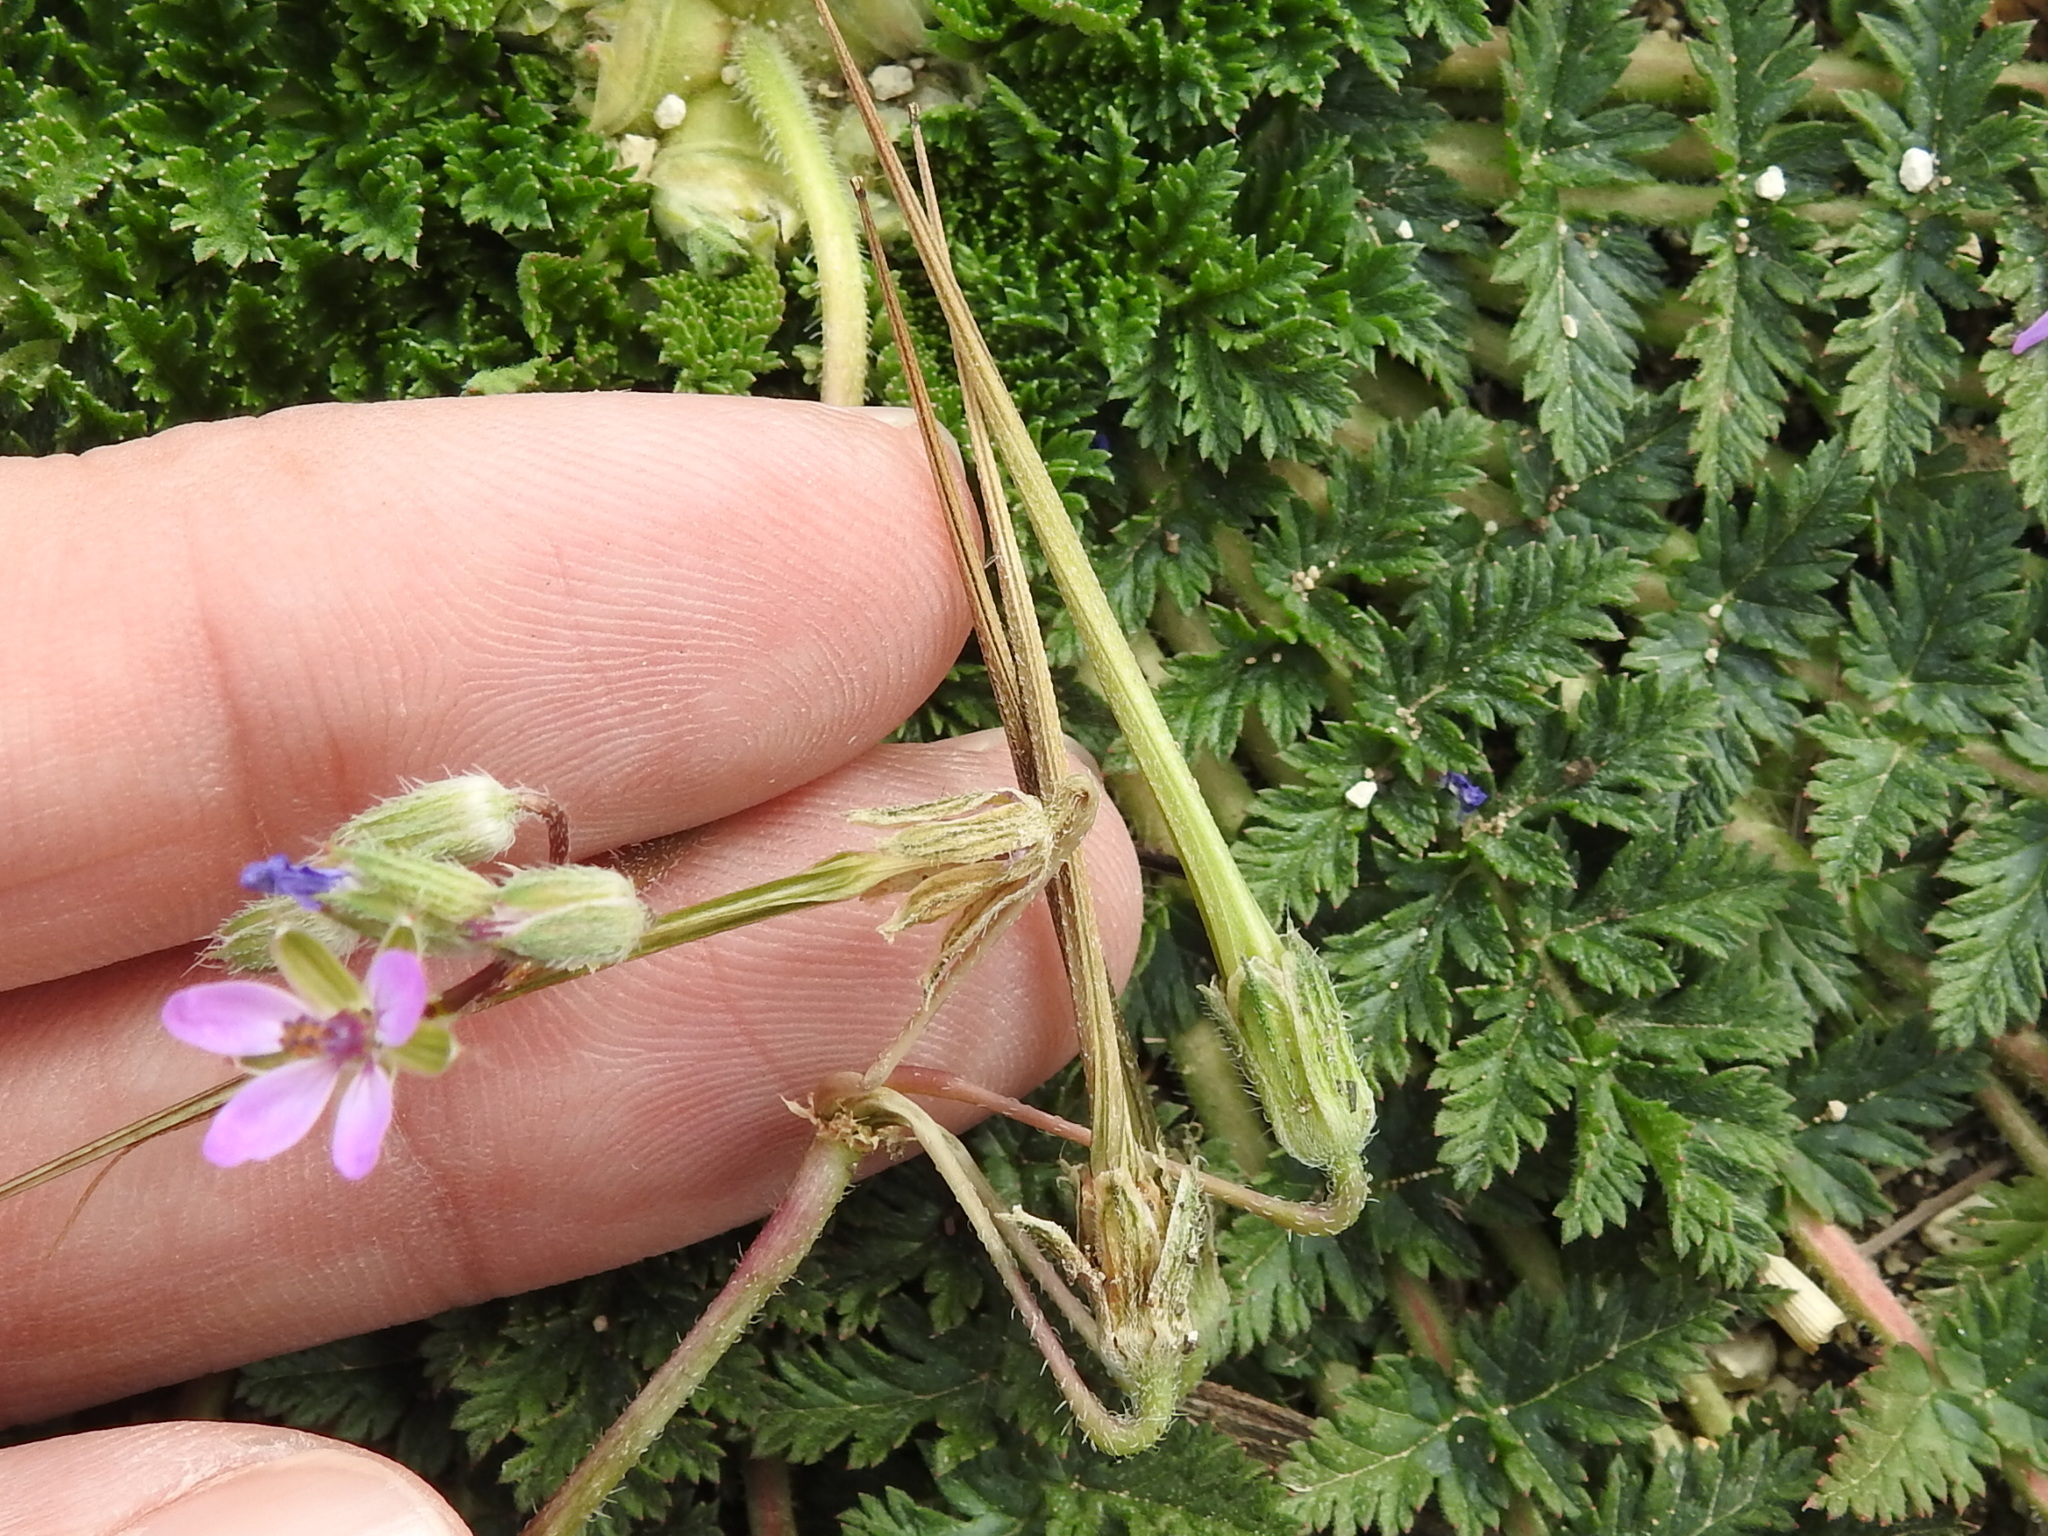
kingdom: Plantae
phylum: Tracheophyta
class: Magnoliopsida
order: Geraniales
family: Geraniaceae
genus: Erodium
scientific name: Erodium cicutarium
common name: Common stork's-bill
